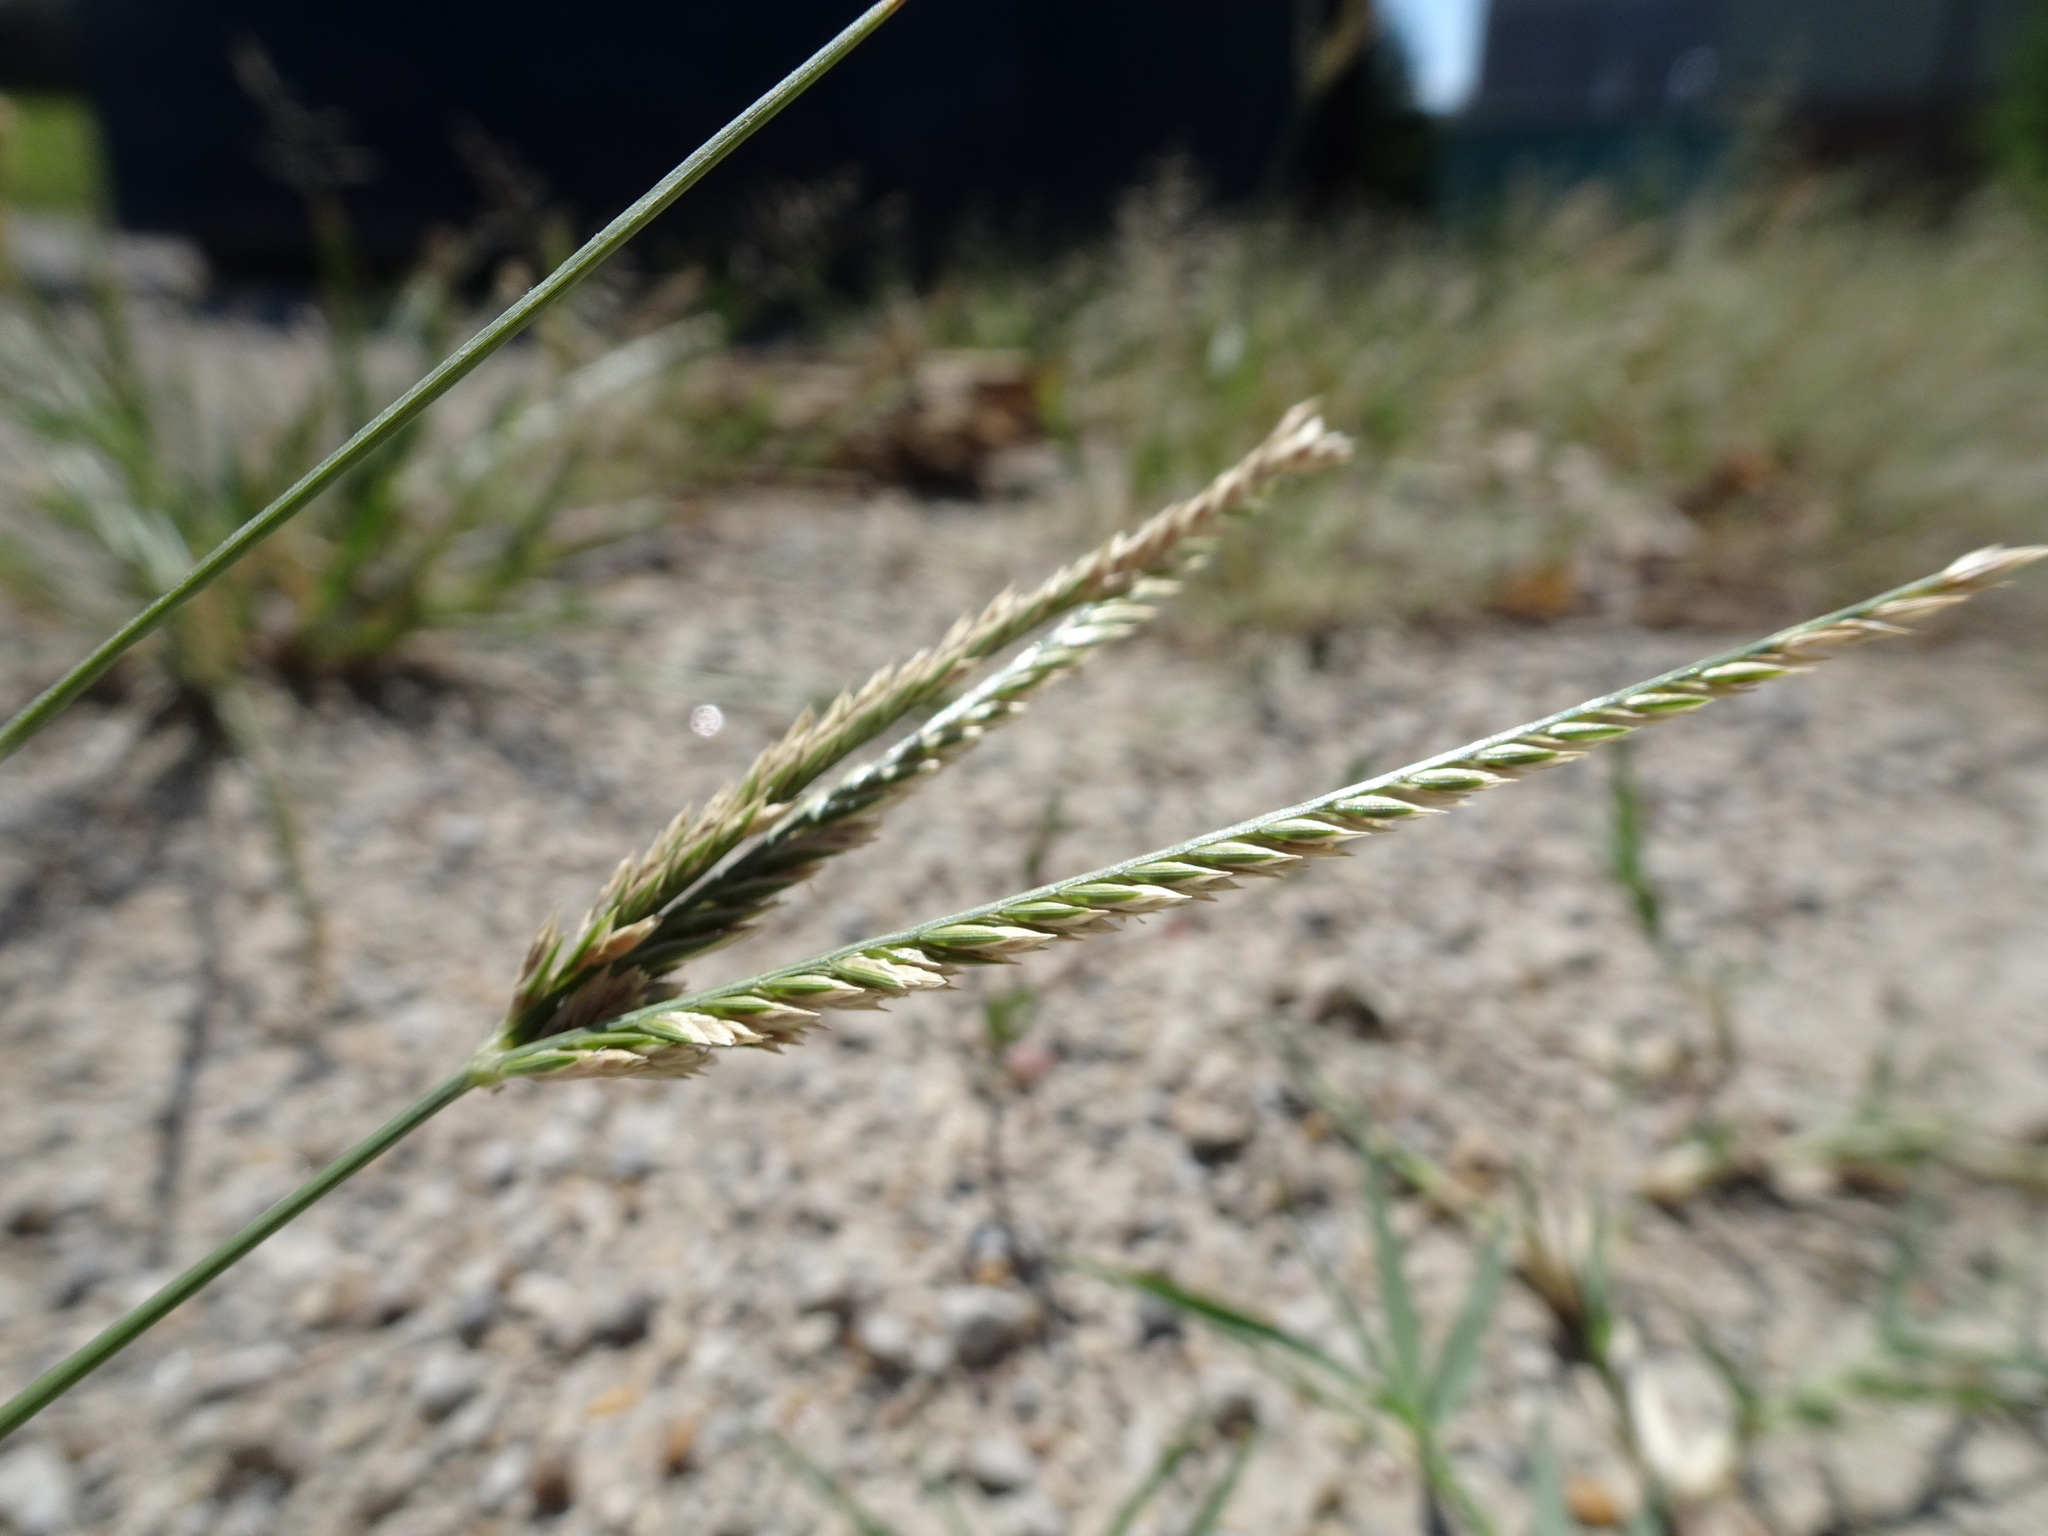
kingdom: Plantae
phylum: Tracheophyta
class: Liliopsida
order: Poales
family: Poaceae
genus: Eleusine
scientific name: Eleusine indica
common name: Yard-grass
